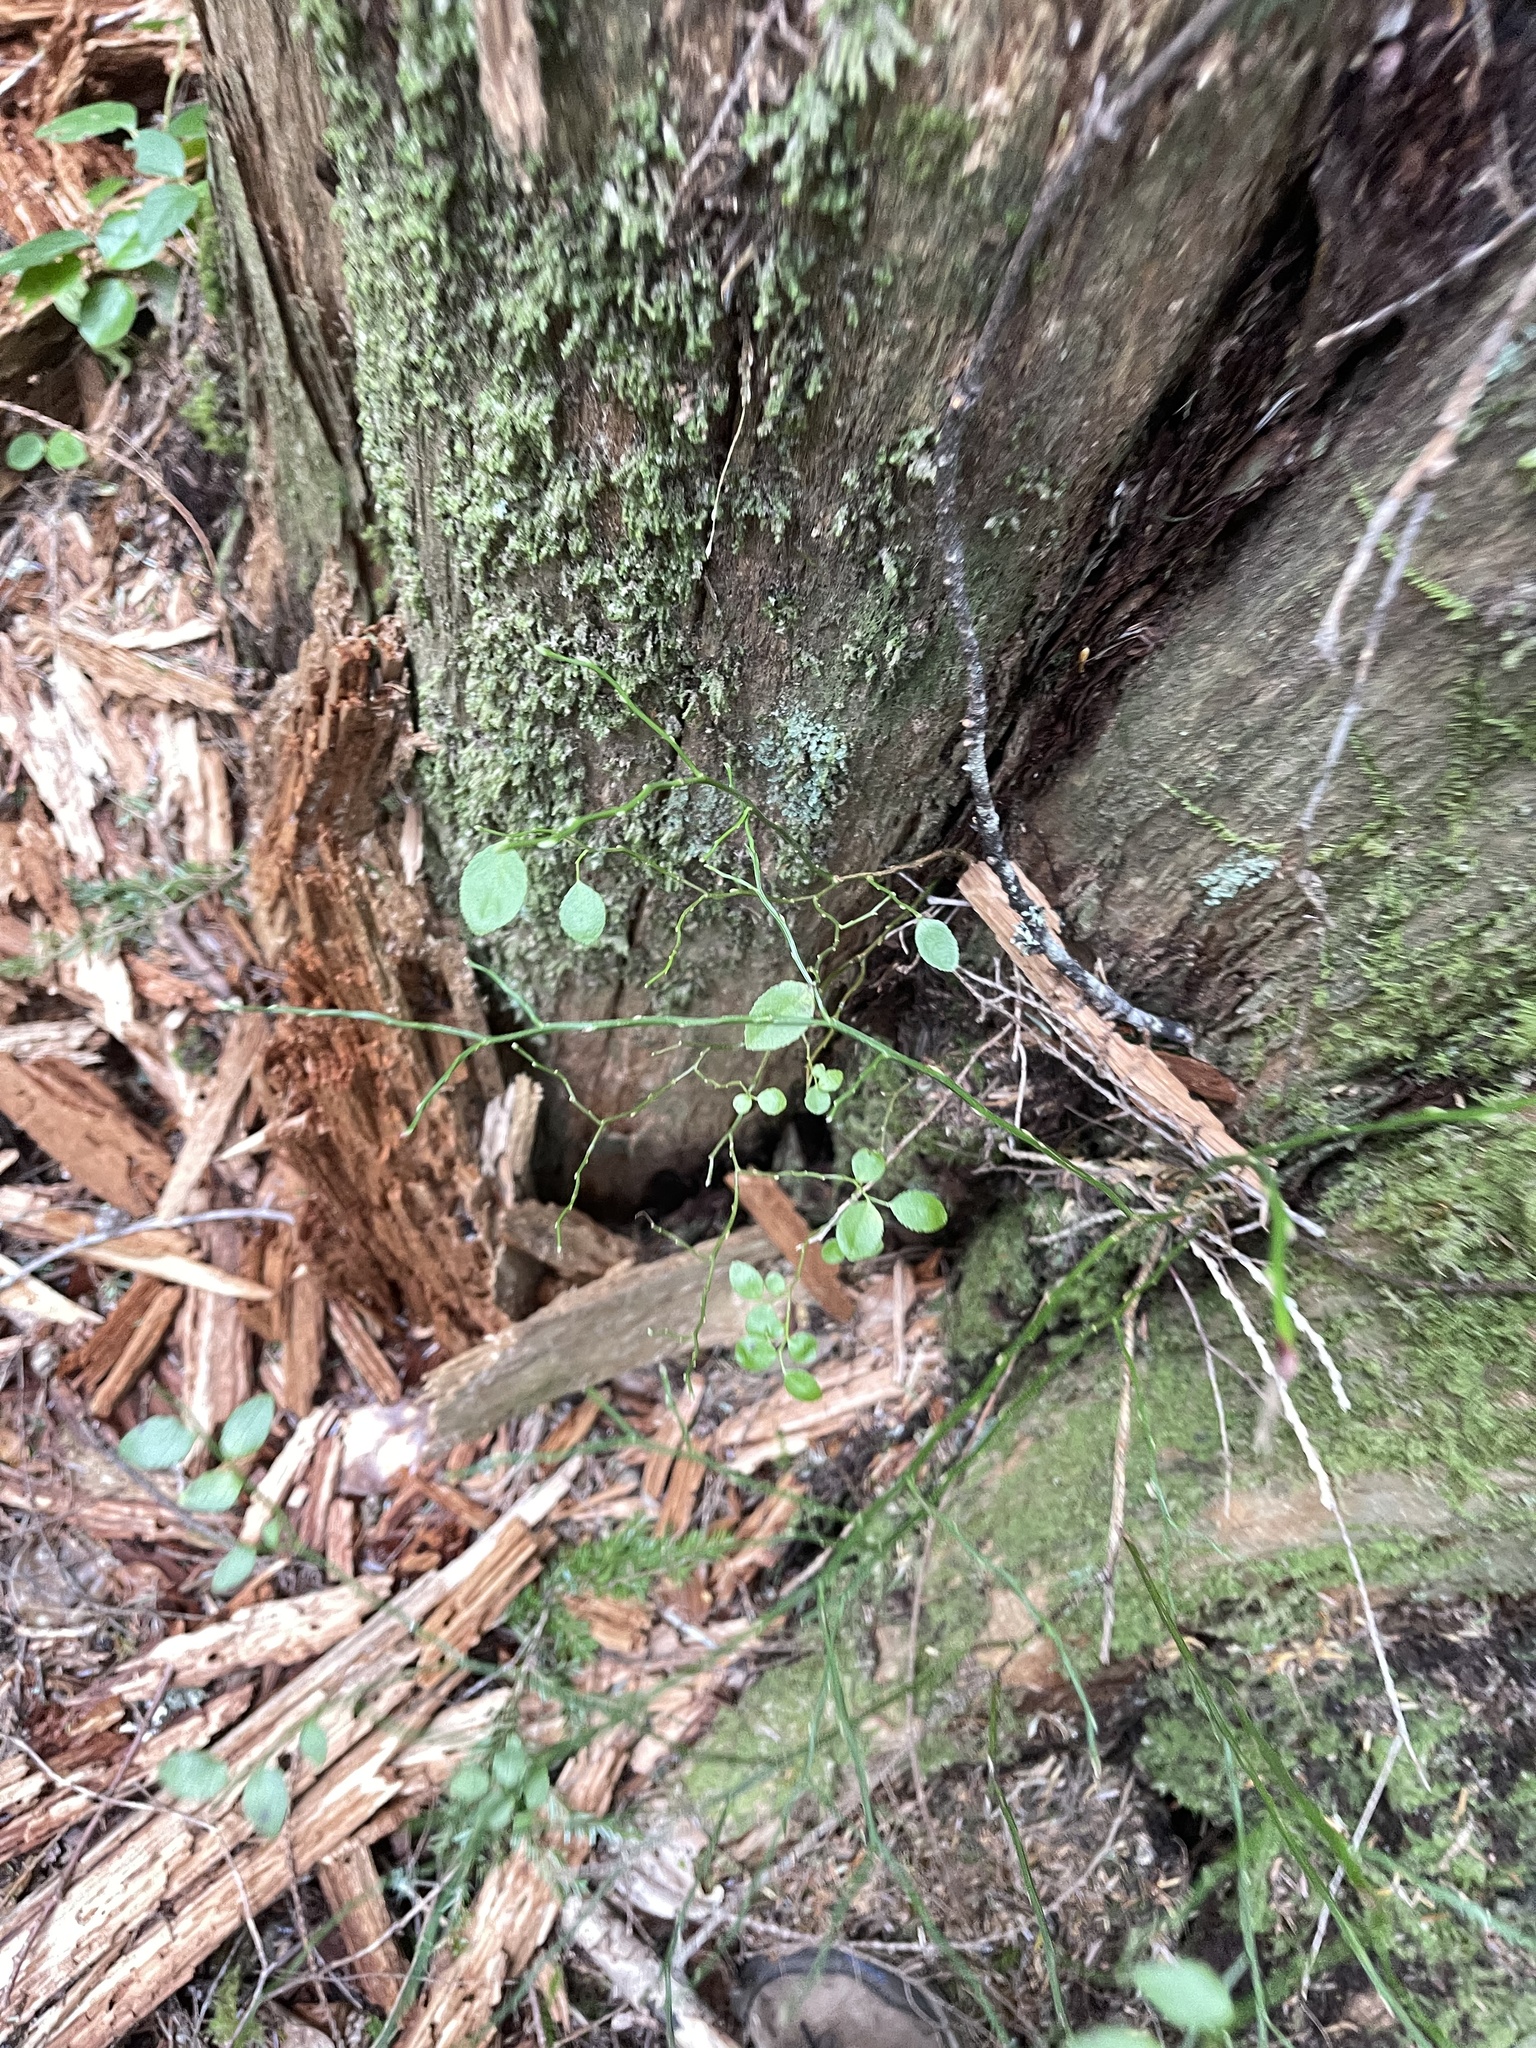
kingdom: Plantae
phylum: Tracheophyta
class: Magnoliopsida
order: Ericales
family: Ericaceae
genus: Vaccinium
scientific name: Vaccinium parvifolium
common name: Red-huckleberry
